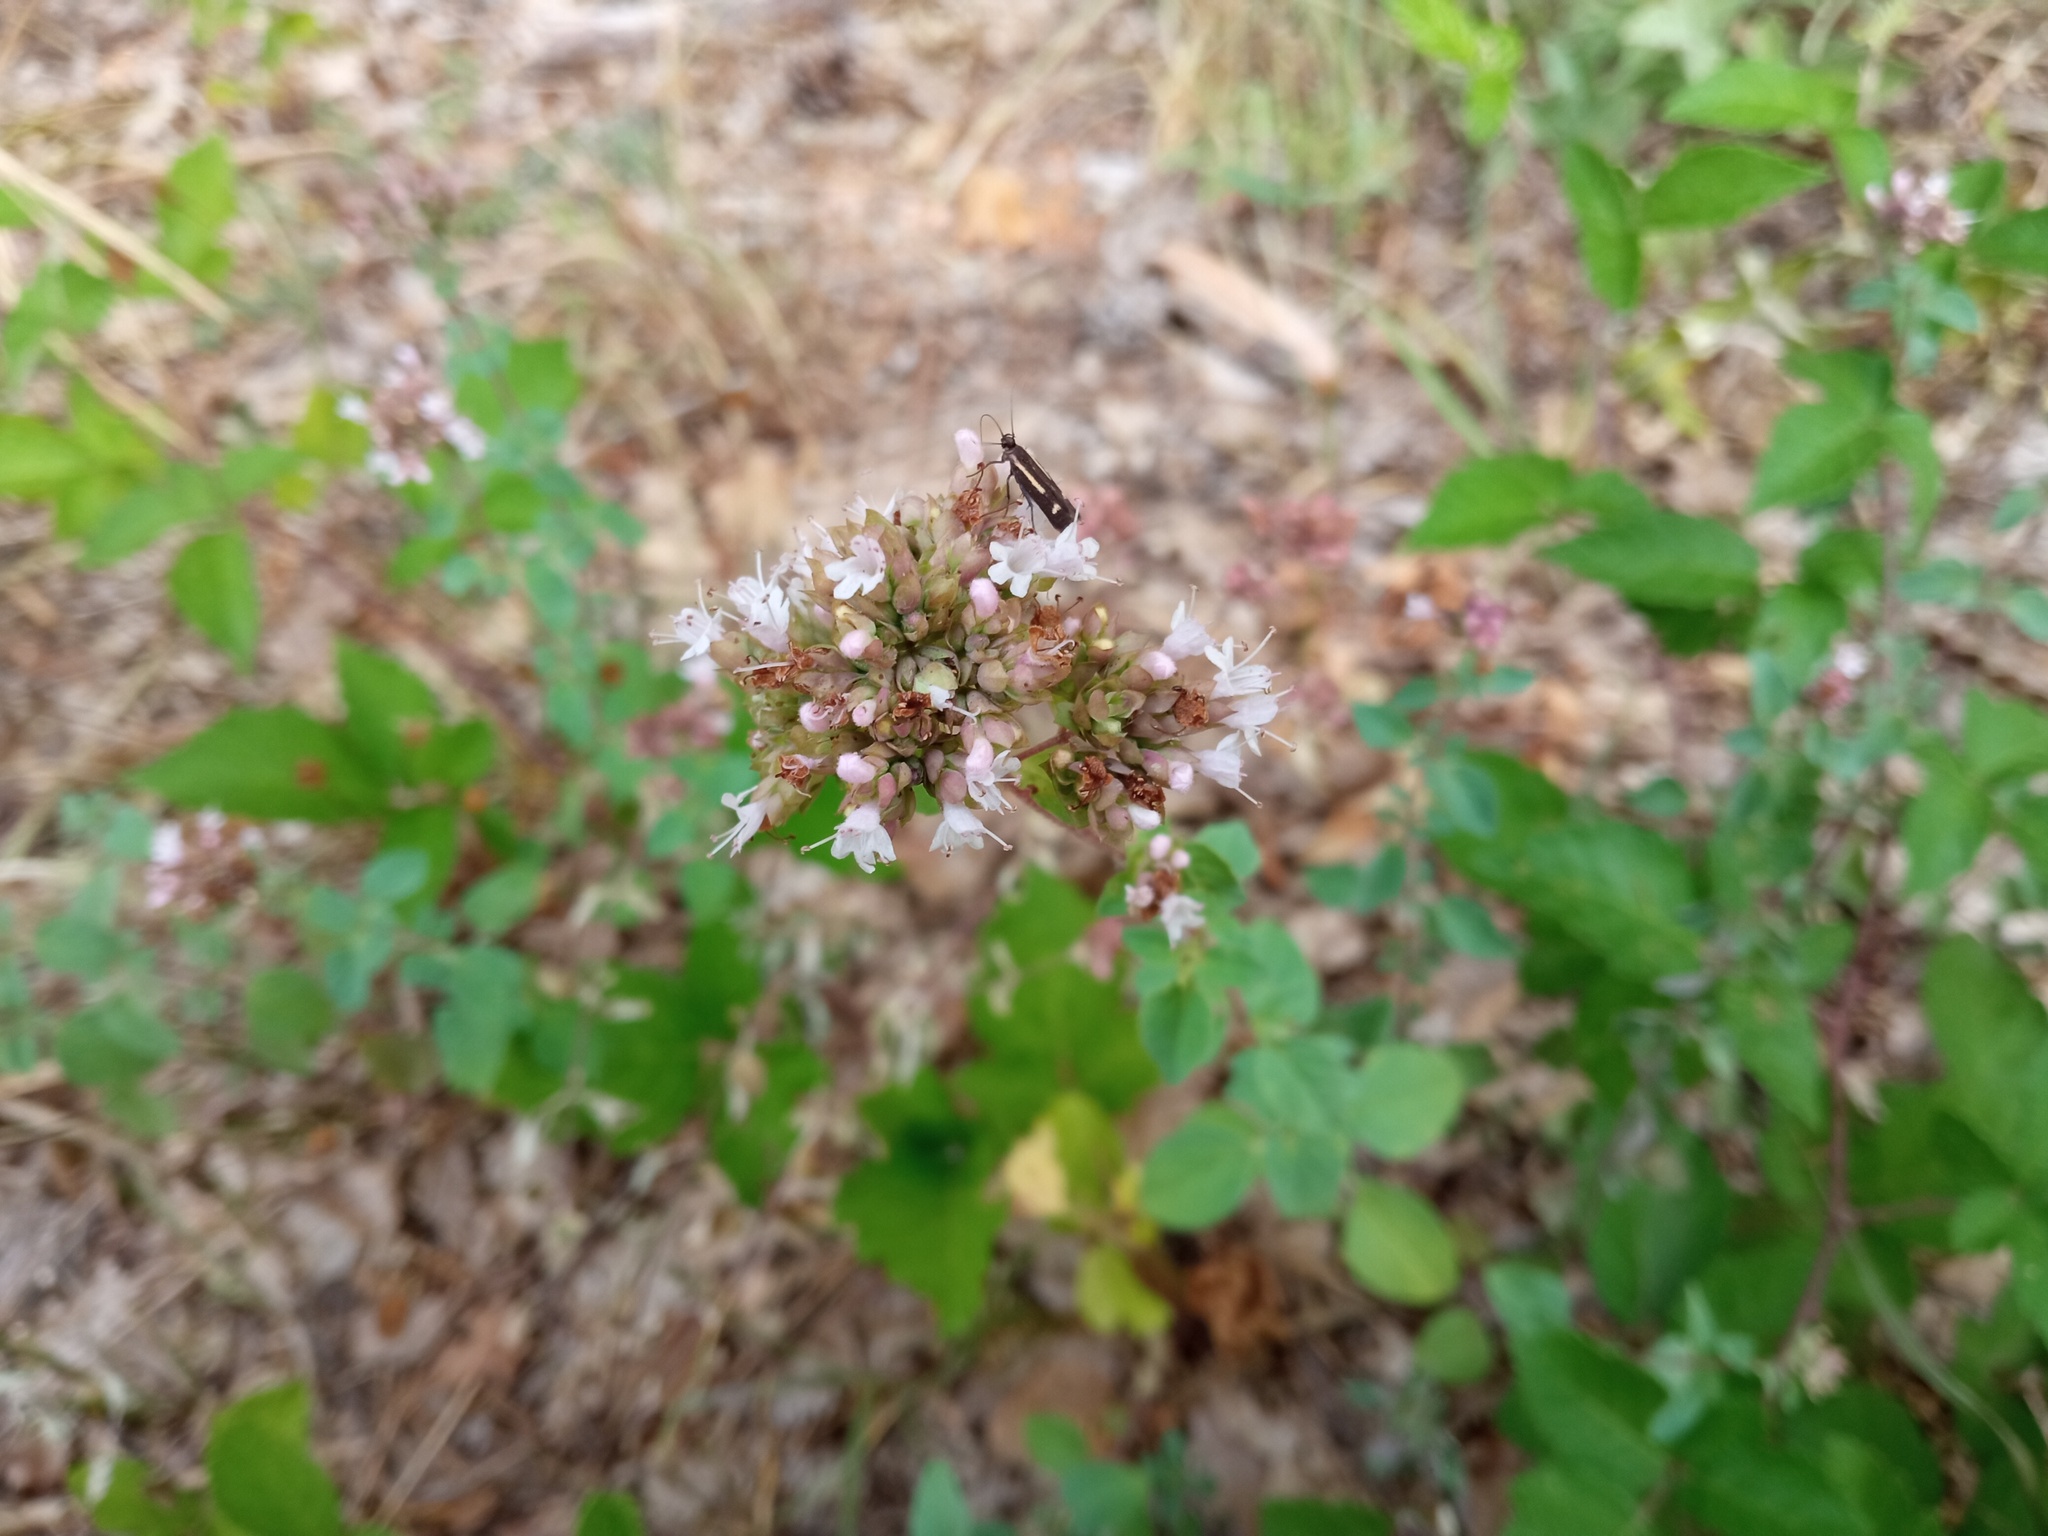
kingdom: Plantae
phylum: Tracheophyta
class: Magnoliopsida
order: Lamiales
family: Lamiaceae
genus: Origanum
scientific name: Origanum vulgare
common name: Wild marjoram
